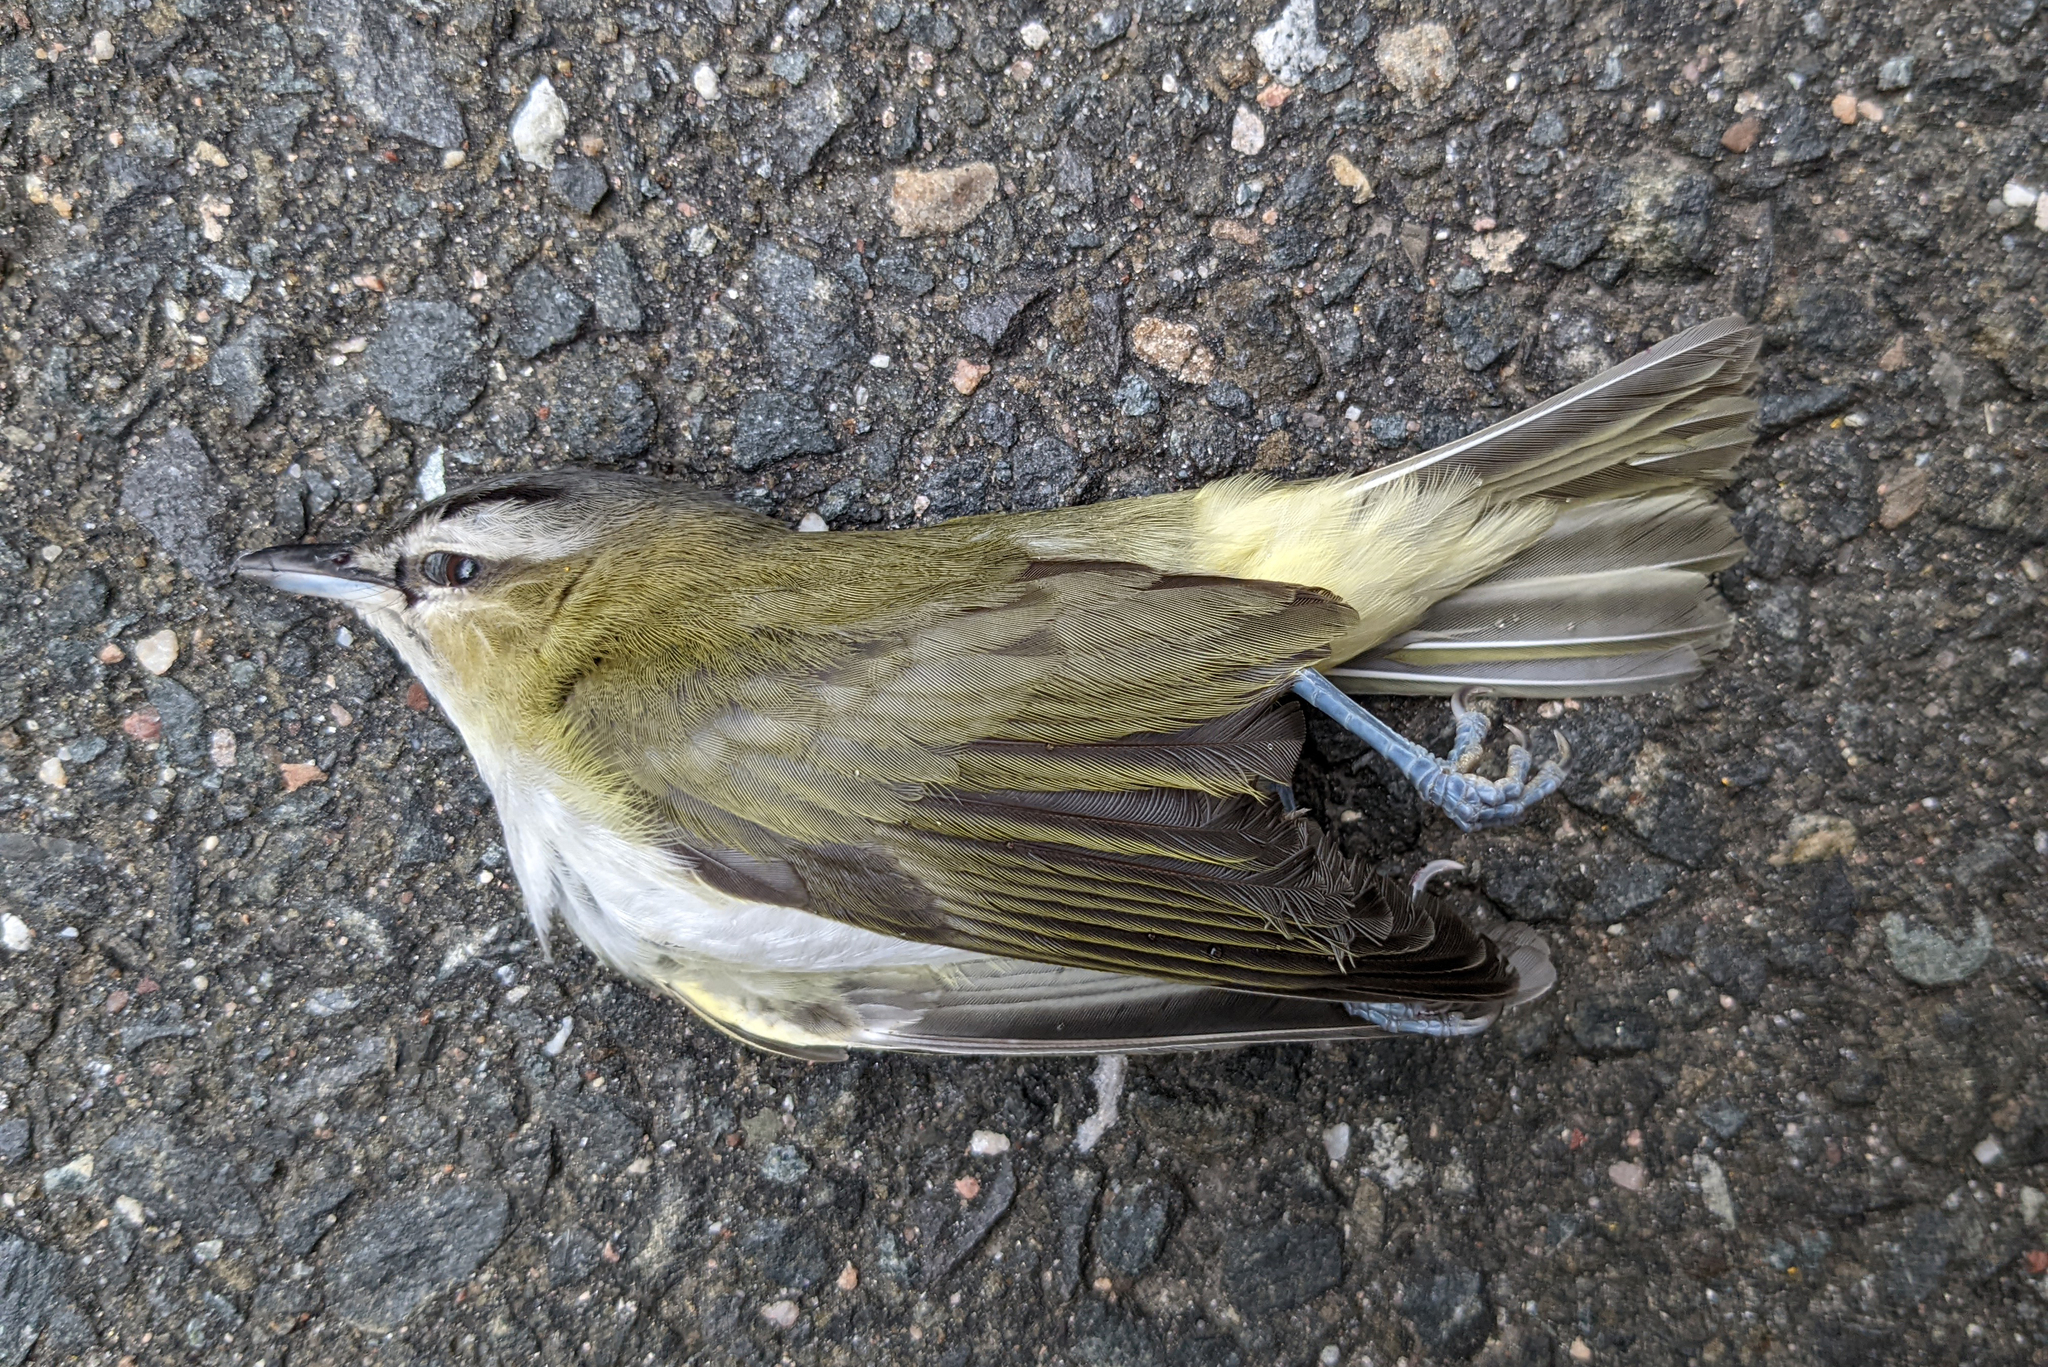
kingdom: Animalia
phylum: Chordata
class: Aves
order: Passeriformes
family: Vireonidae
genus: Vireo
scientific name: Vireo olivaceus
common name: Red-eyed vireo
